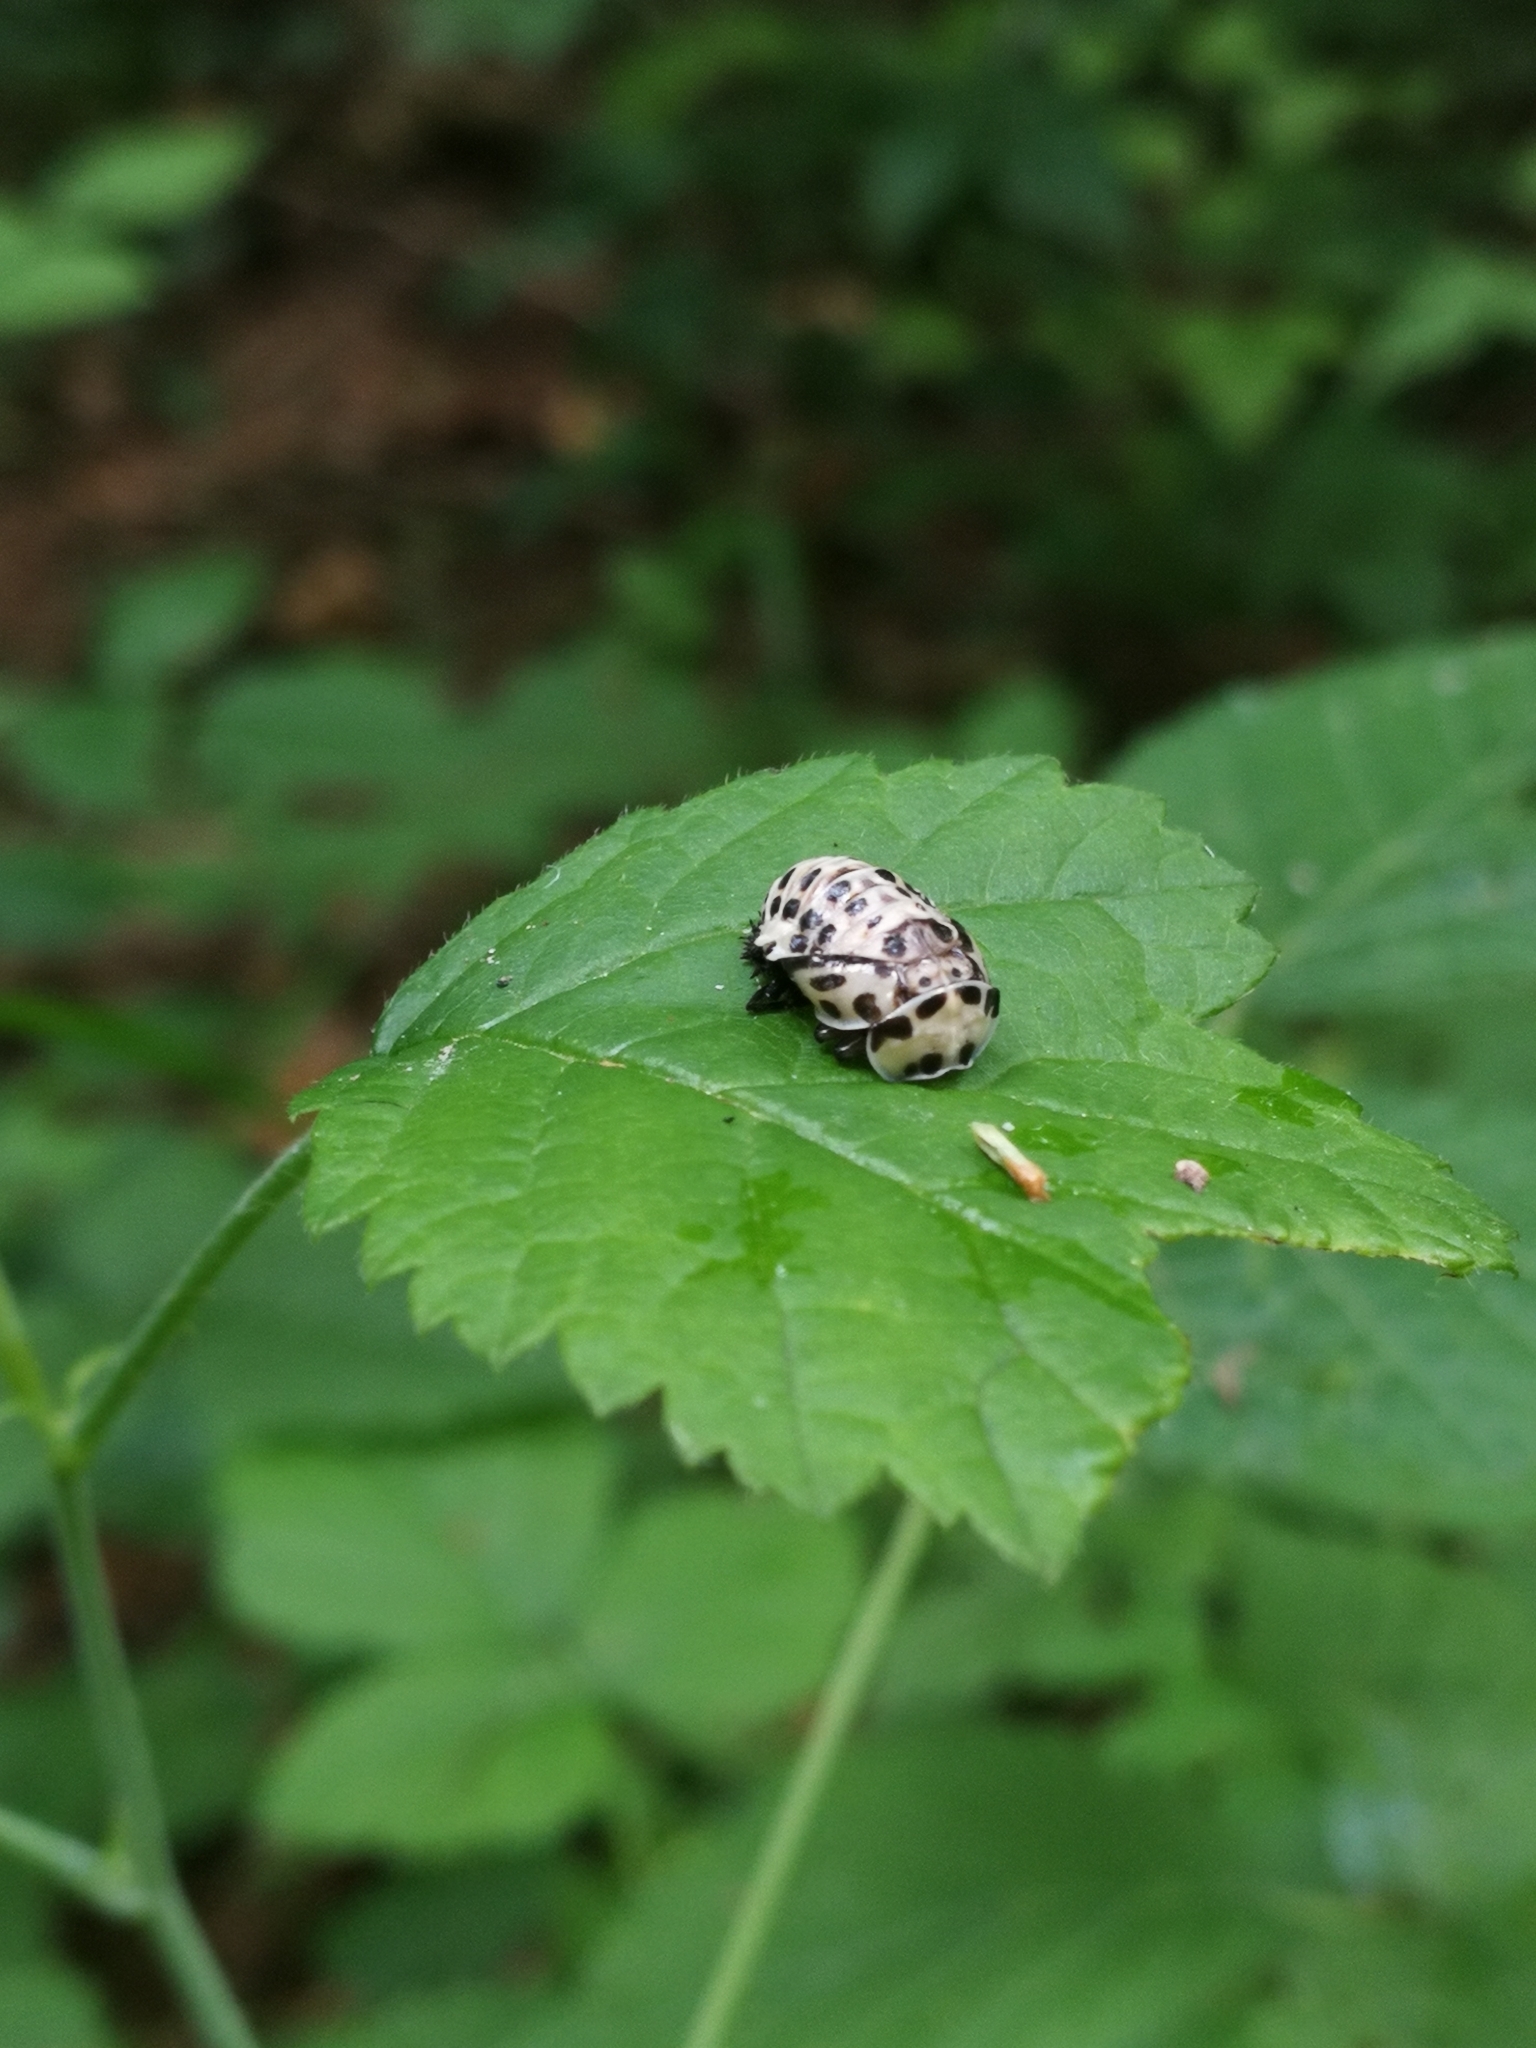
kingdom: Animalia
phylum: Arthropoda
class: Insecta
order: Coleoptera
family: Coccinellidae
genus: Anatis
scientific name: Anatis ocellata
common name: Eyed ladybird
